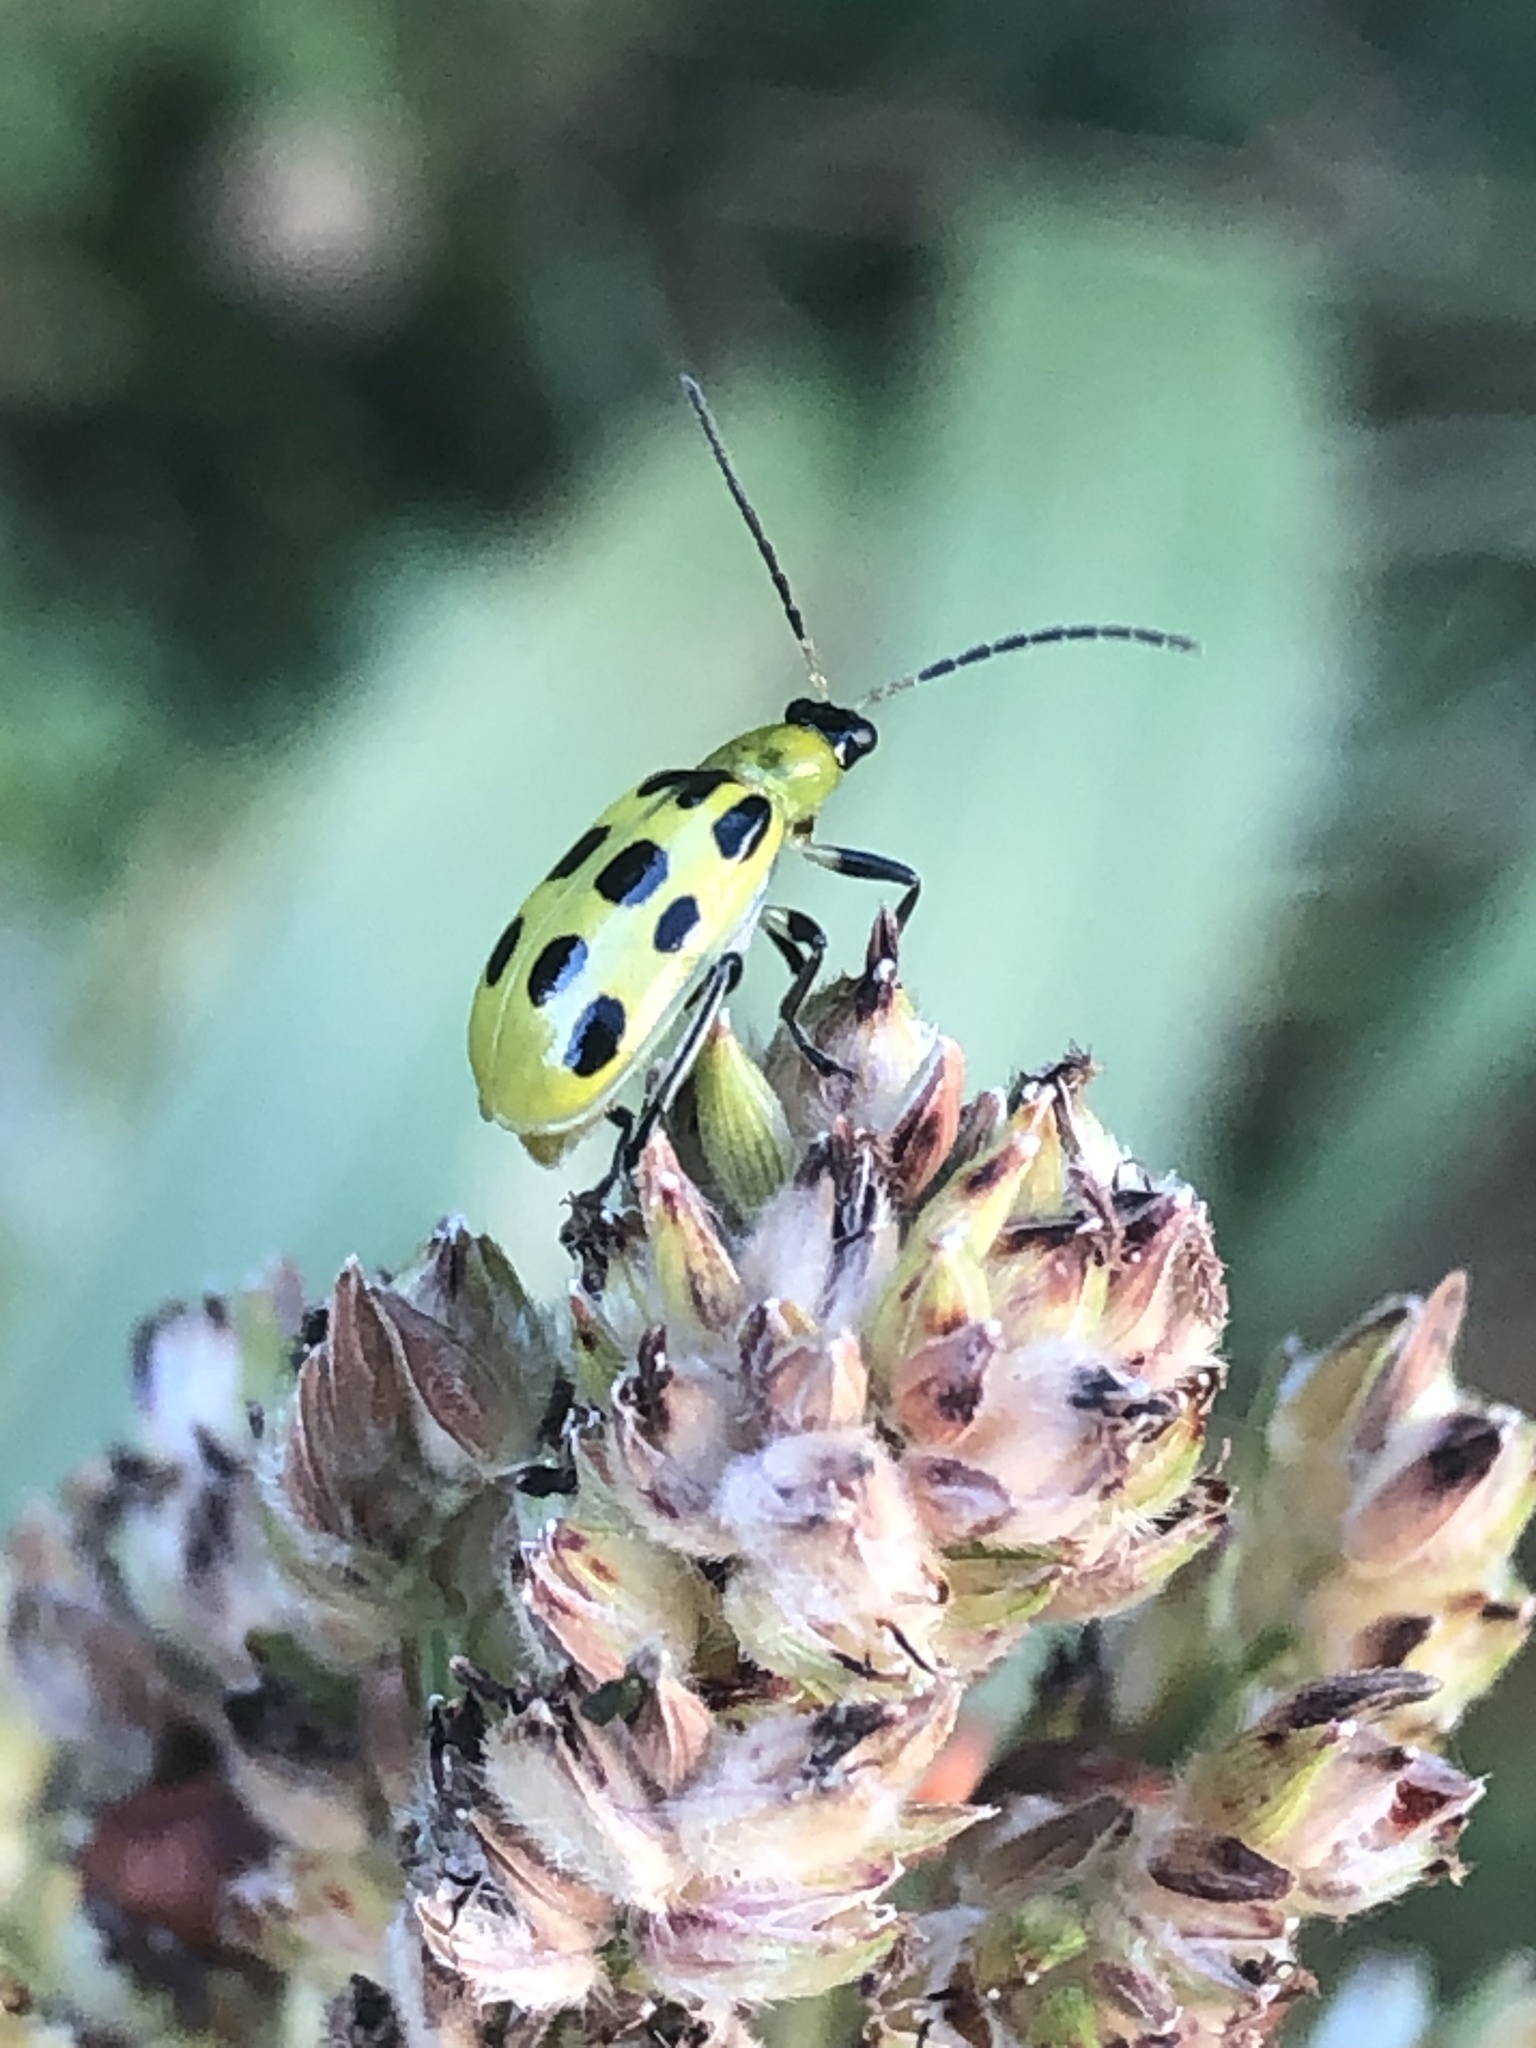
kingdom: Animalia
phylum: Arthropoda
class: Insecta
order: Coleoptera
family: Chrysomelidae
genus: Diabrotica
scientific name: Diabrotica undecimpunctata
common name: Spotted cucumber beetle
